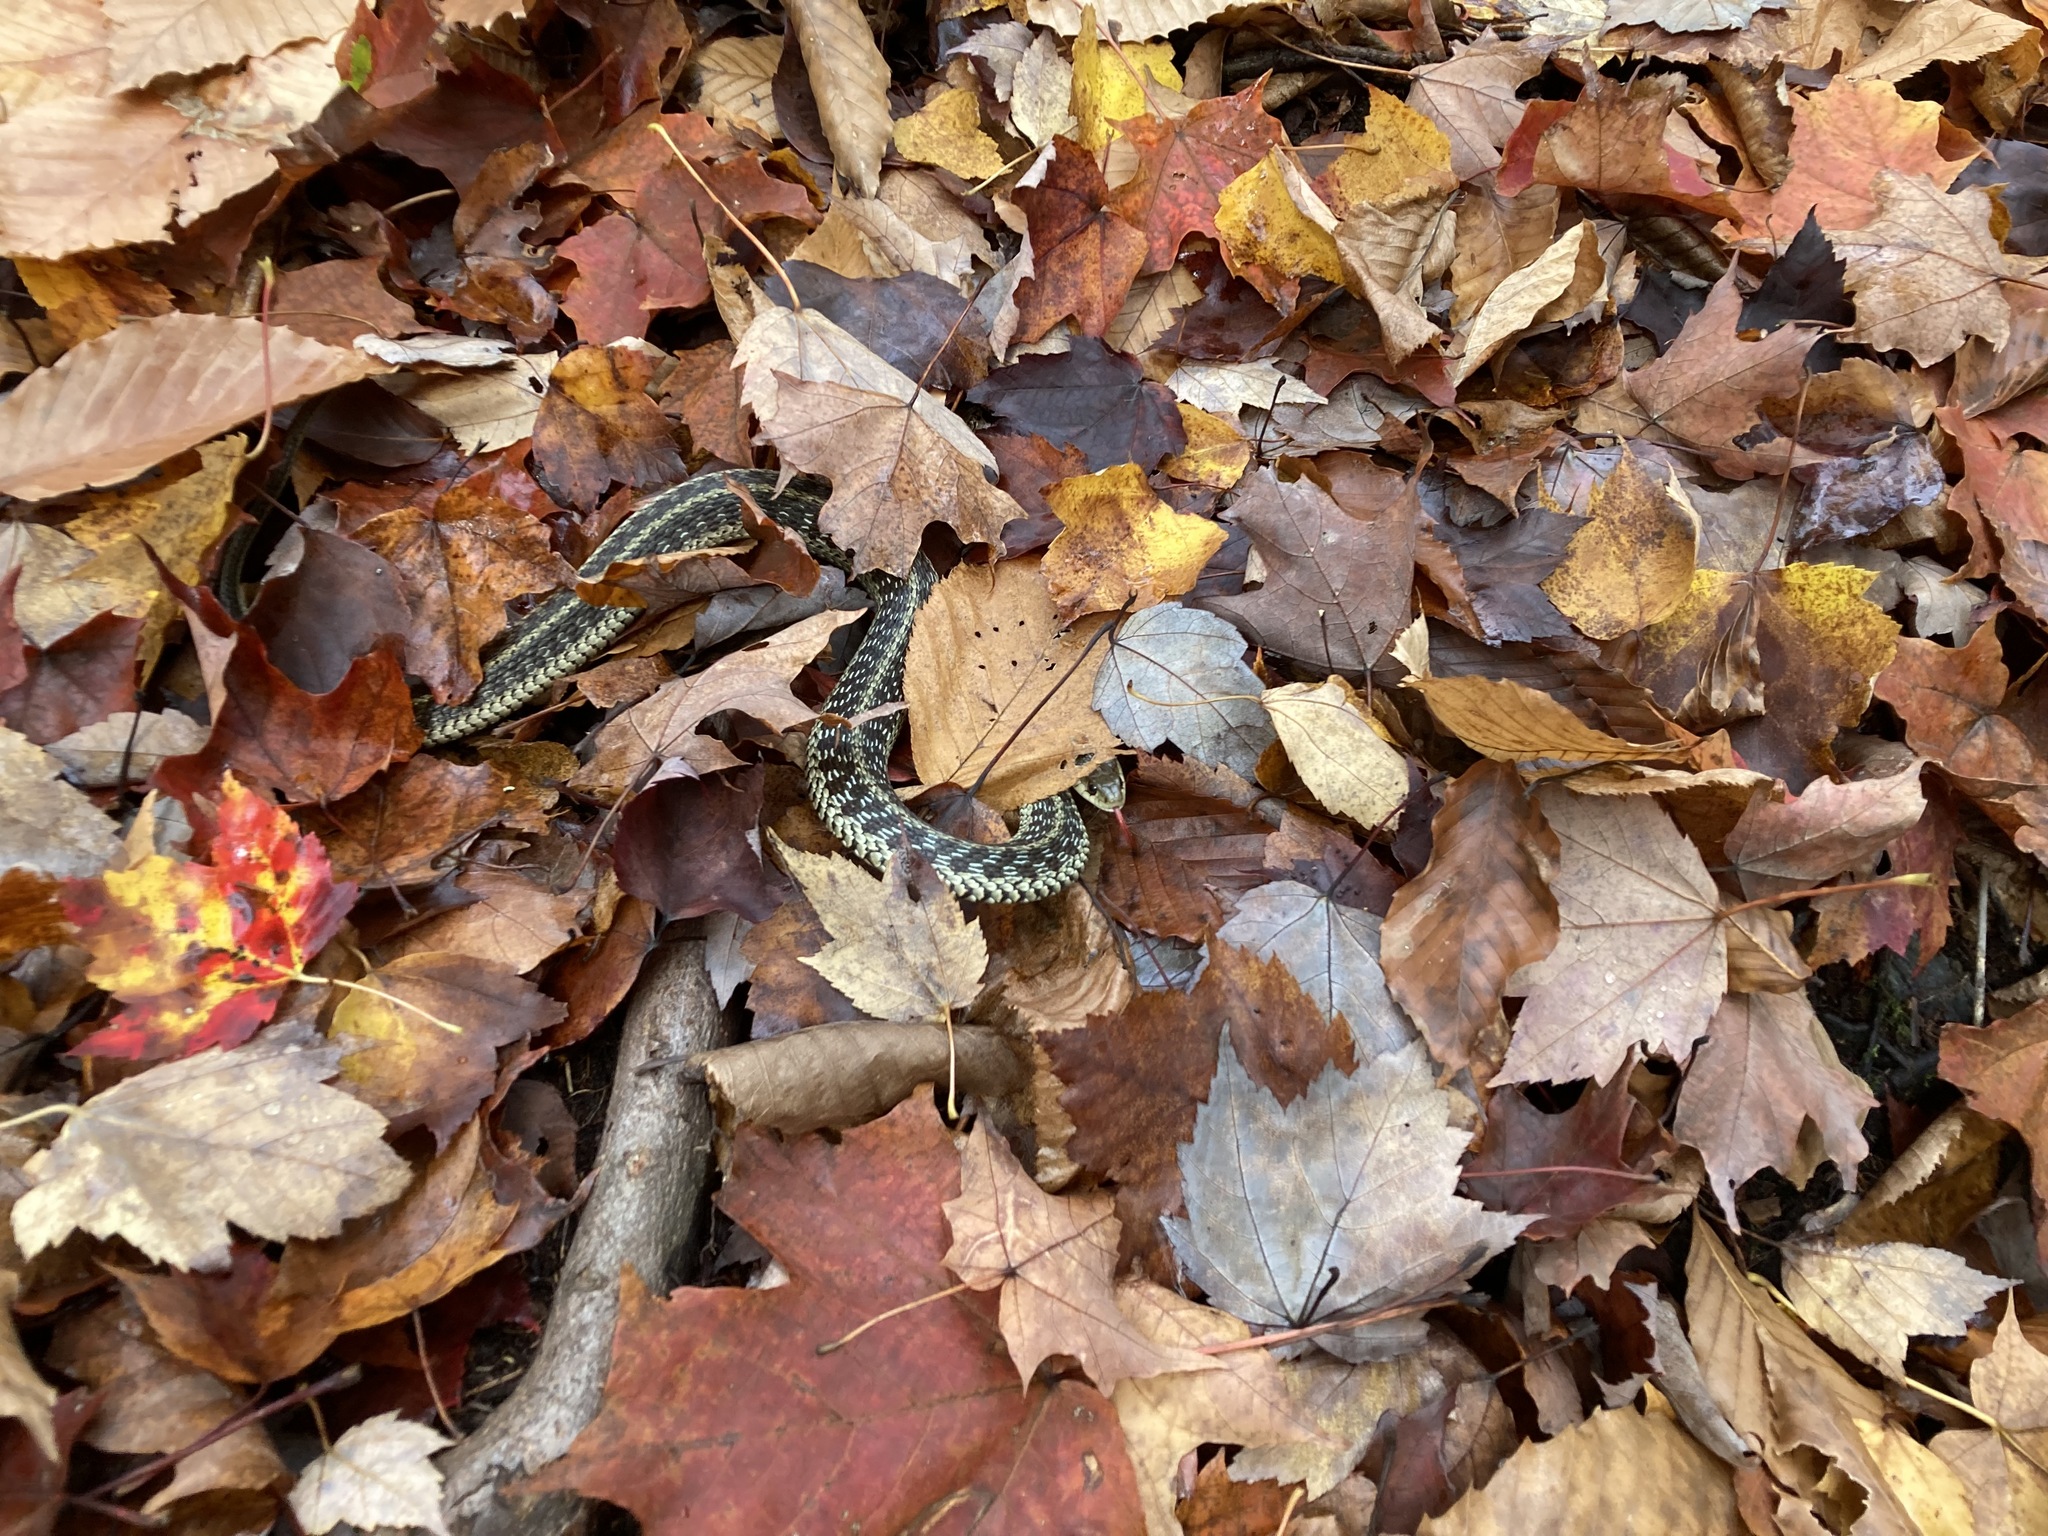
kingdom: Animalia
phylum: Chordata
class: Squamata
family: Colubridae
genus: Thamnophis
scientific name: Thamnophis sirtalis
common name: Common garter snake
